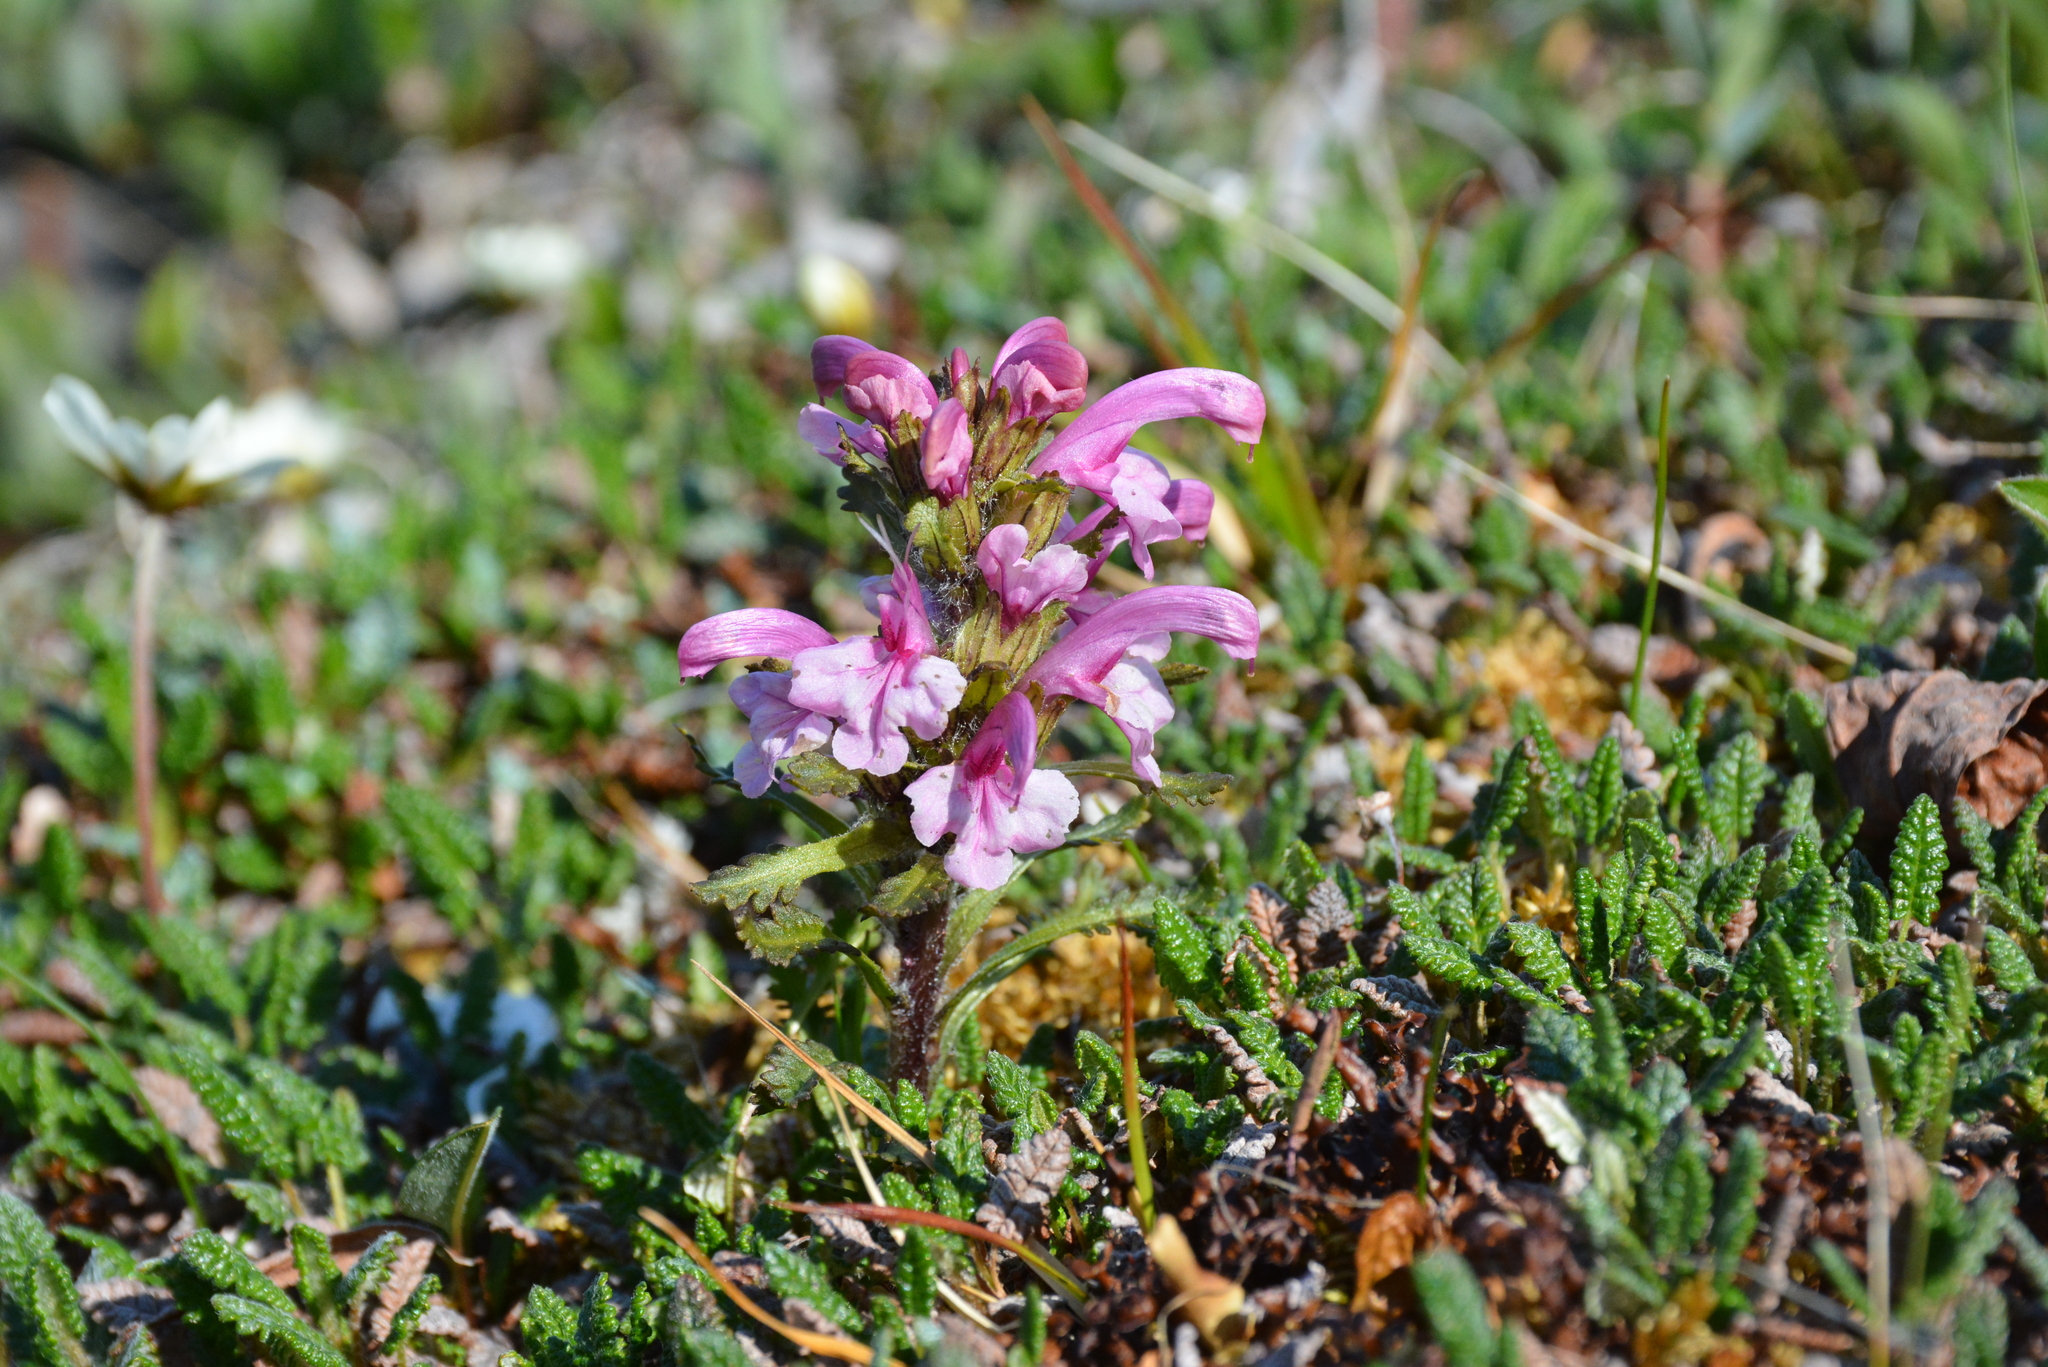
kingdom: Plantae
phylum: Tracheophyta
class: Magnoliopsida
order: Lamiales
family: Orobanchaceae
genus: Pedicularis
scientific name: Pedicularis langsdorffii
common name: Langsdorff's lousewort
